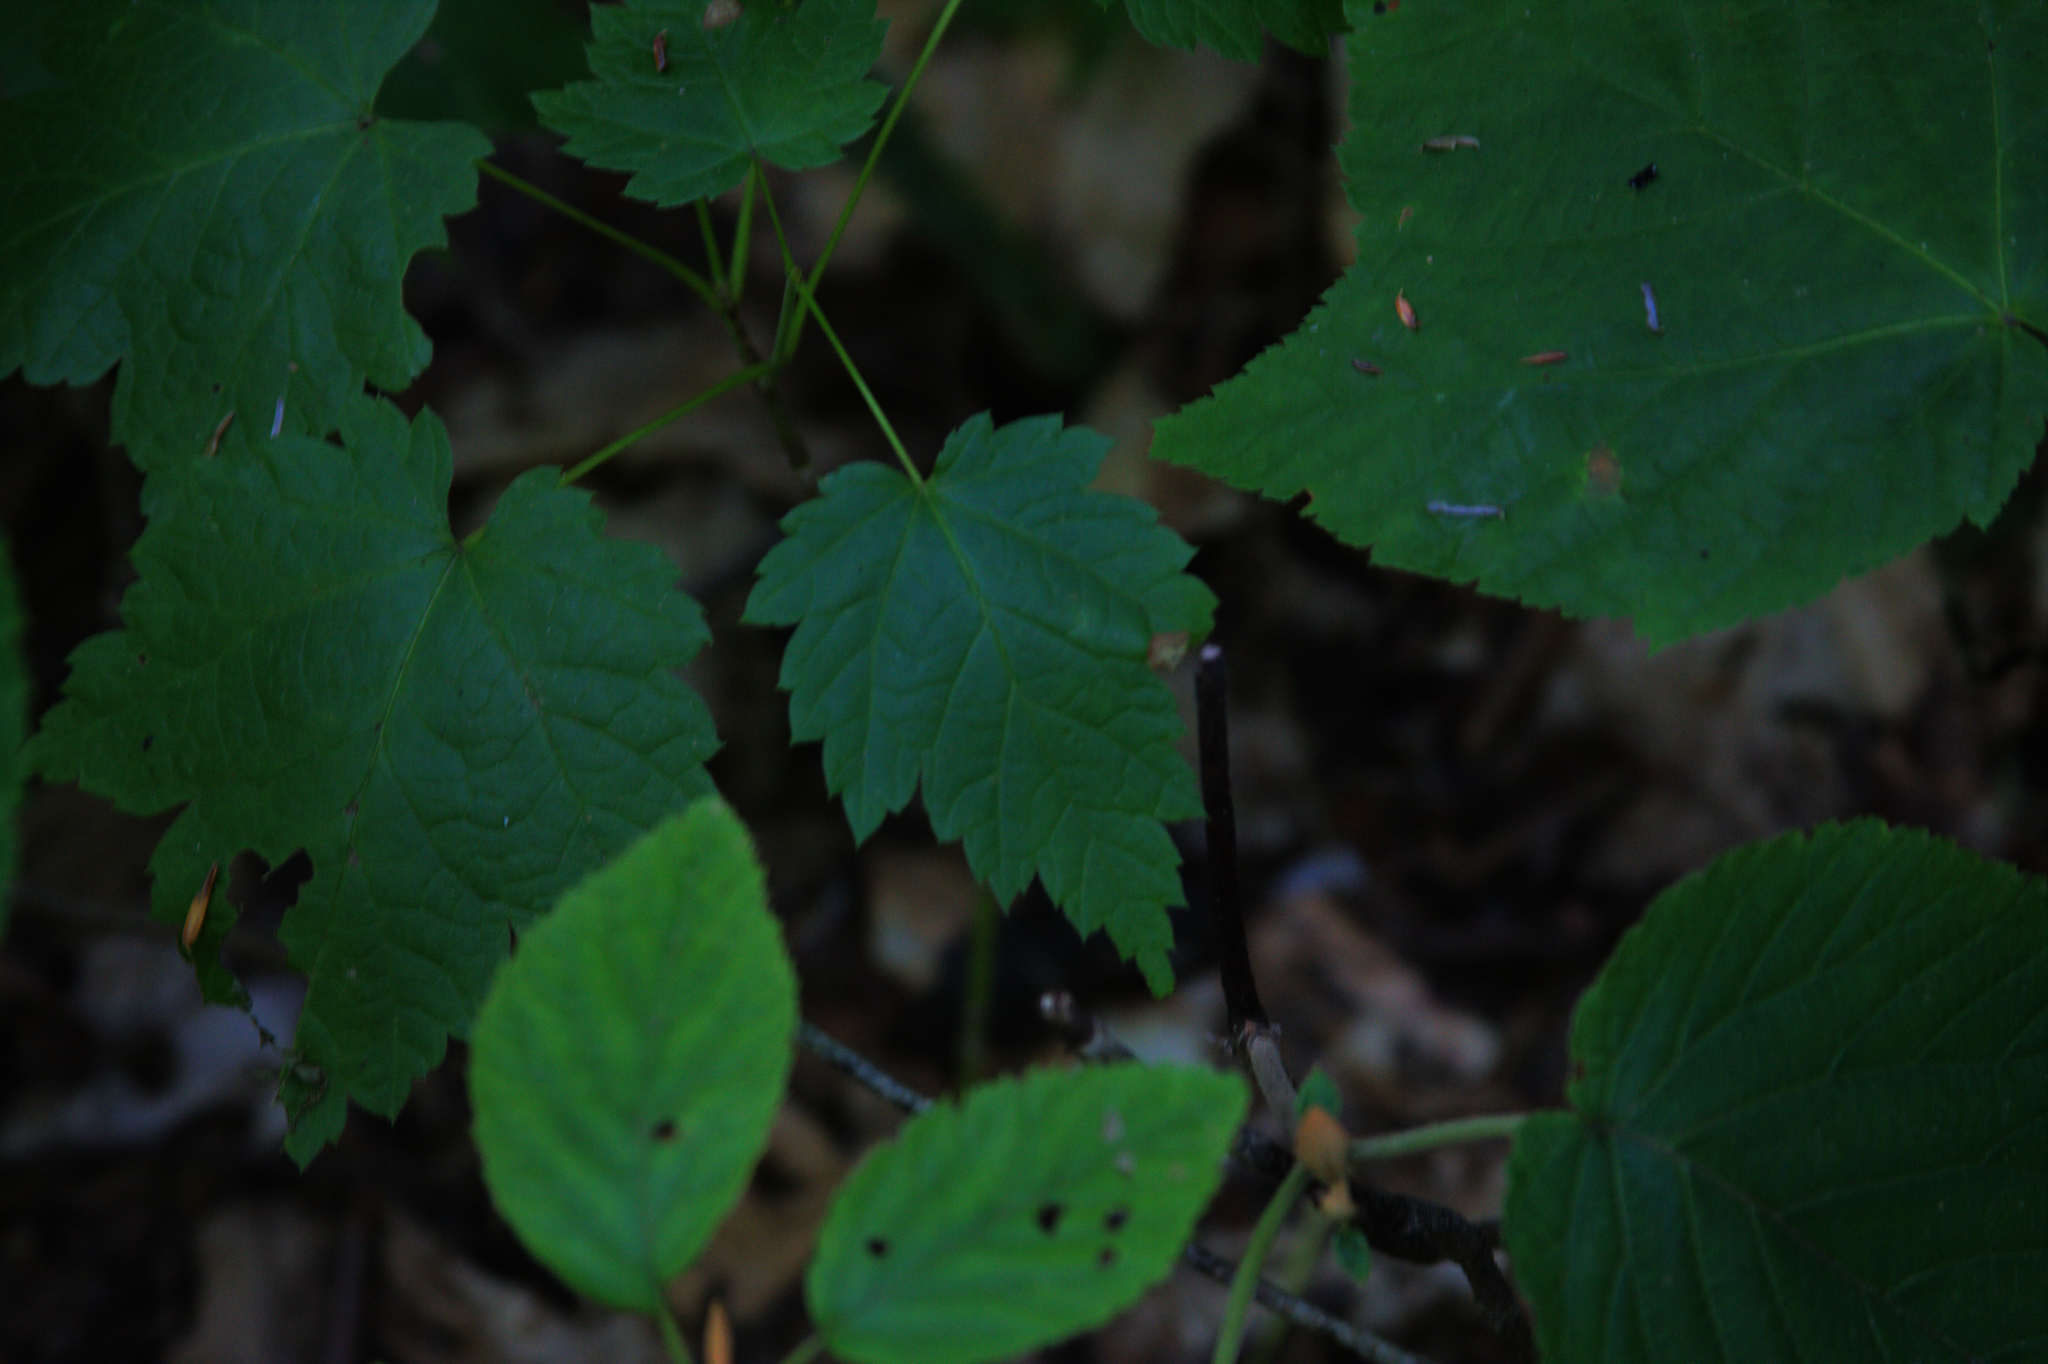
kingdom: Plantae
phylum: Tracheophyta
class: Magnoliopsida
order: Sapindales
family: Sapindaceae
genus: Acer
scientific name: Acer spicatum
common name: Mountain maple
